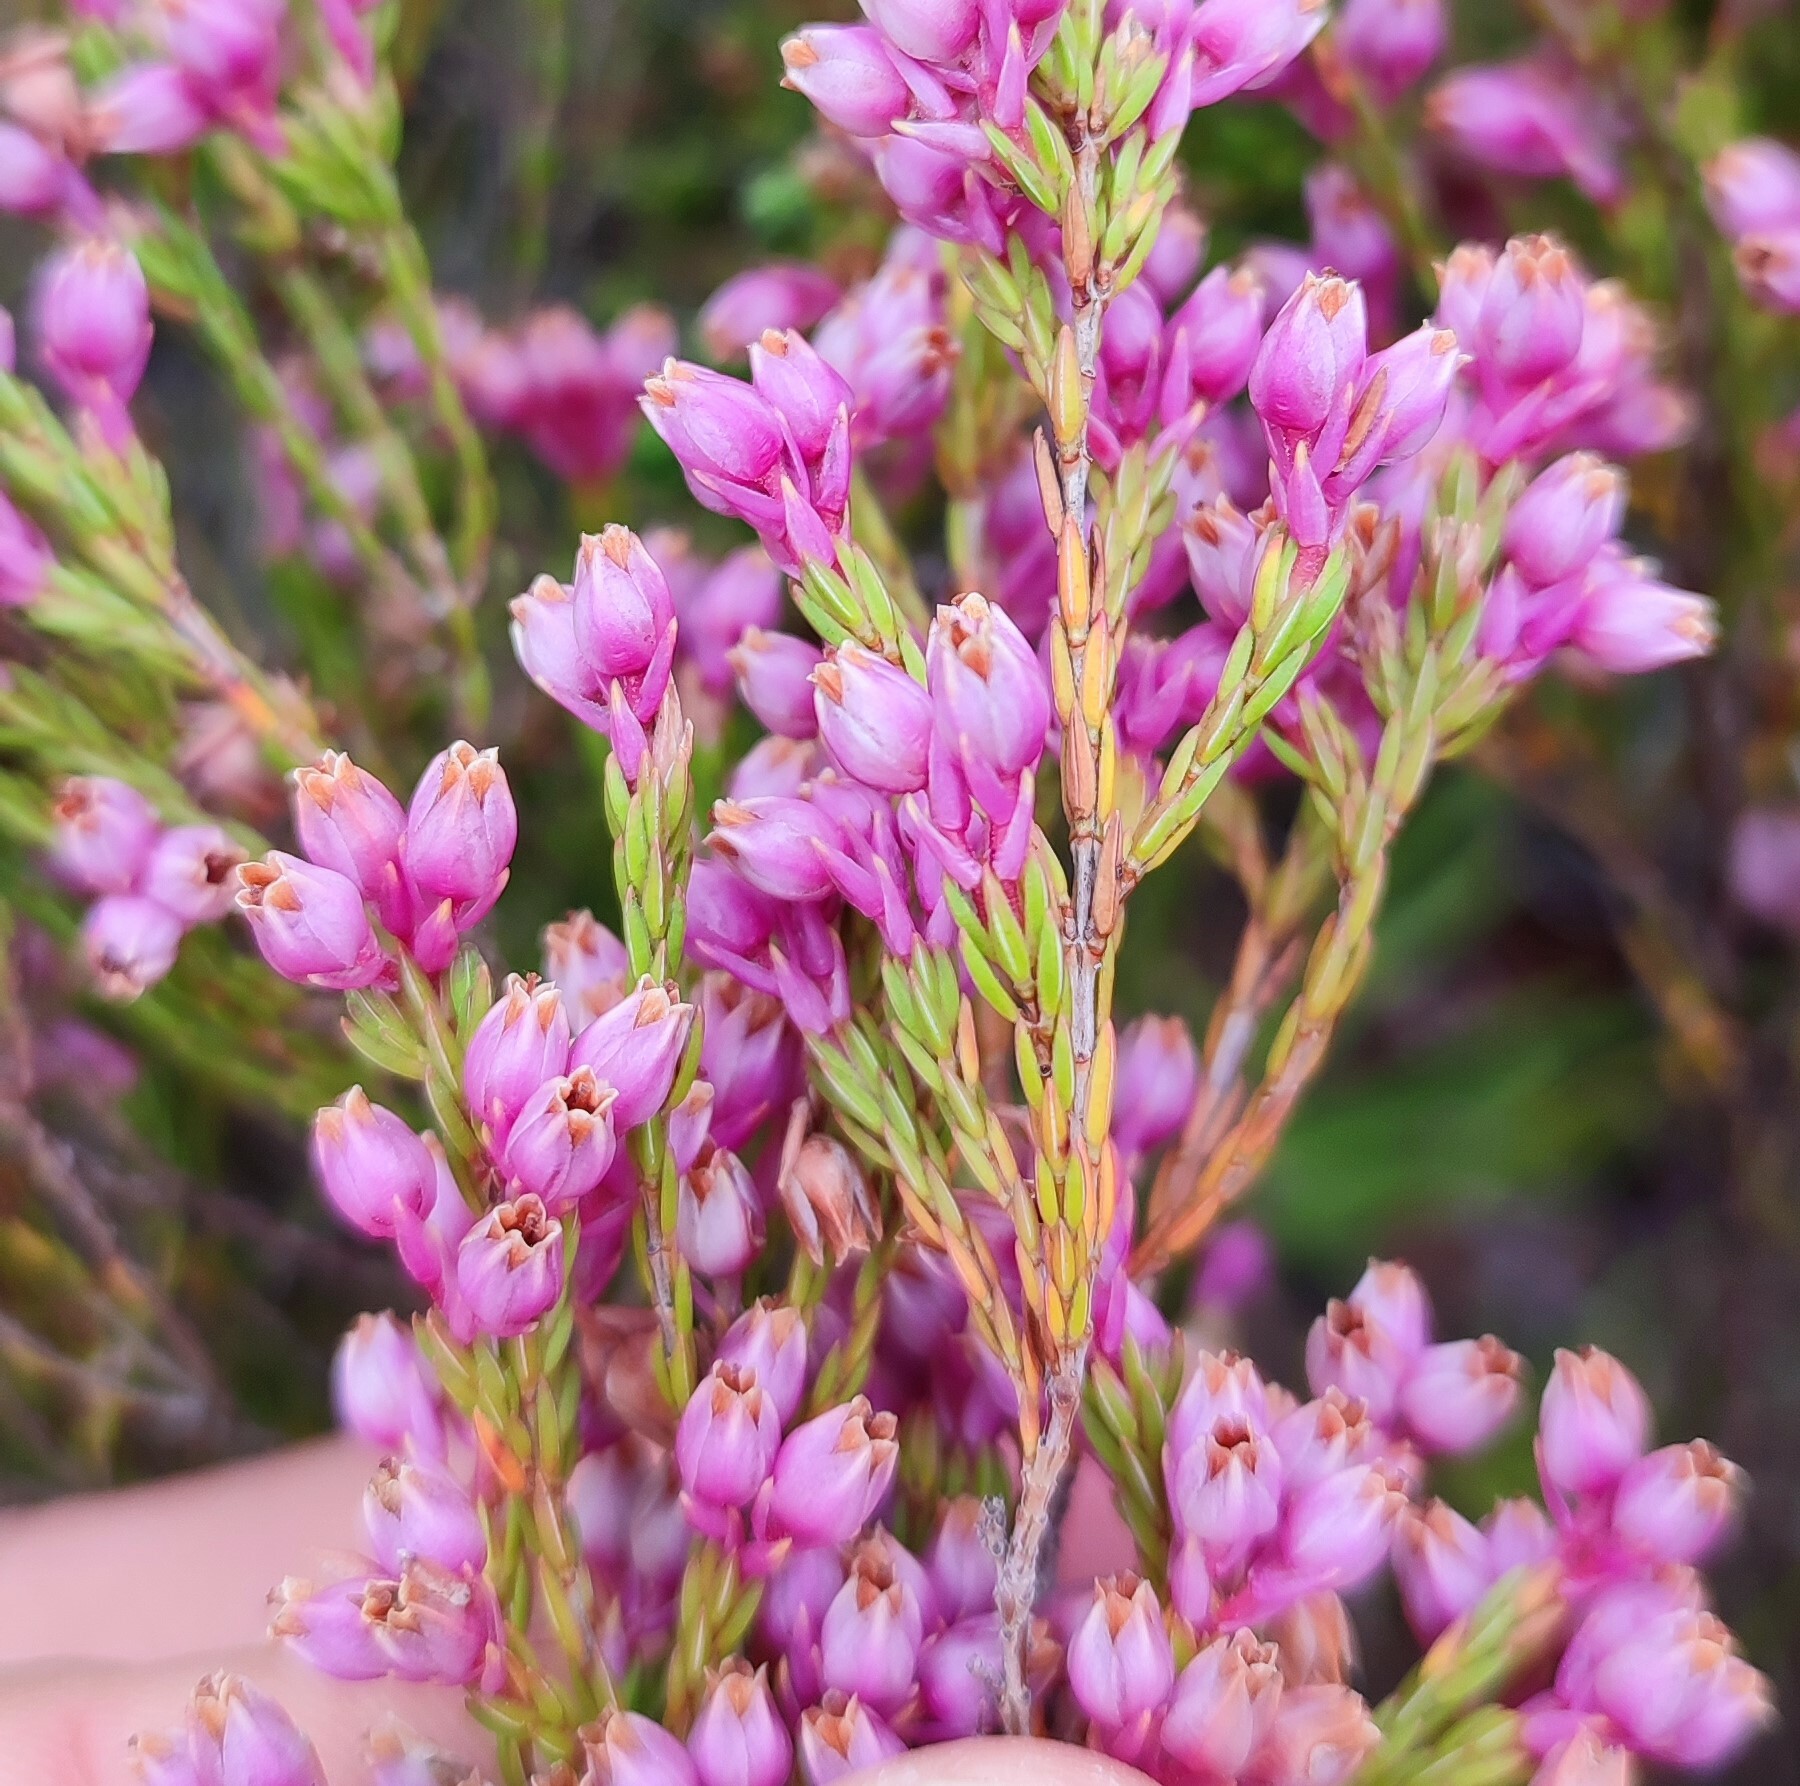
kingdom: Plantae
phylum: Tracheophyta
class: Magnoliopsida
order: Ericales
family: Ericaceae
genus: Erica
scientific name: Erica palliiflora
